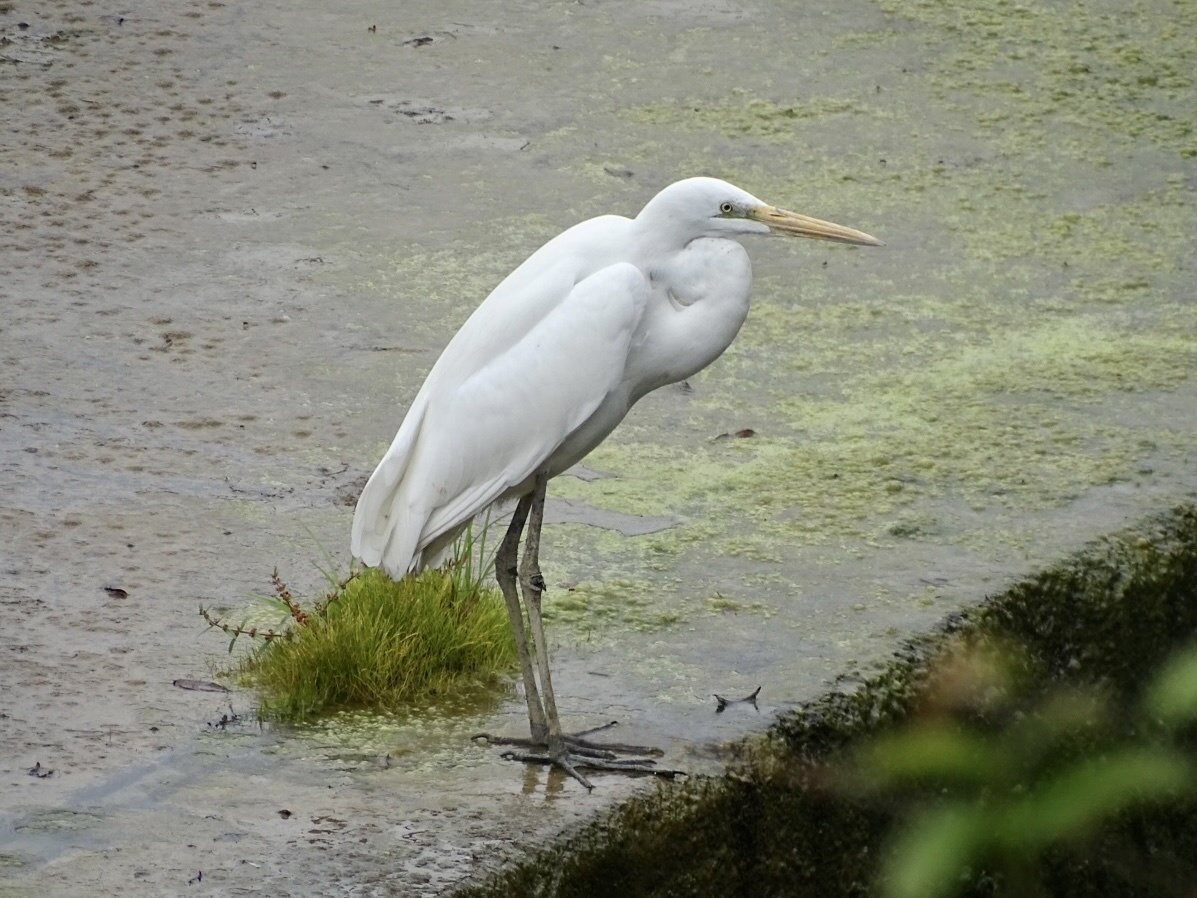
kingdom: Animalia
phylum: Chordata
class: Aves
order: Pelecaniformes
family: Ardeidae
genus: Ardea
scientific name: Ardea alba
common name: Great egret
